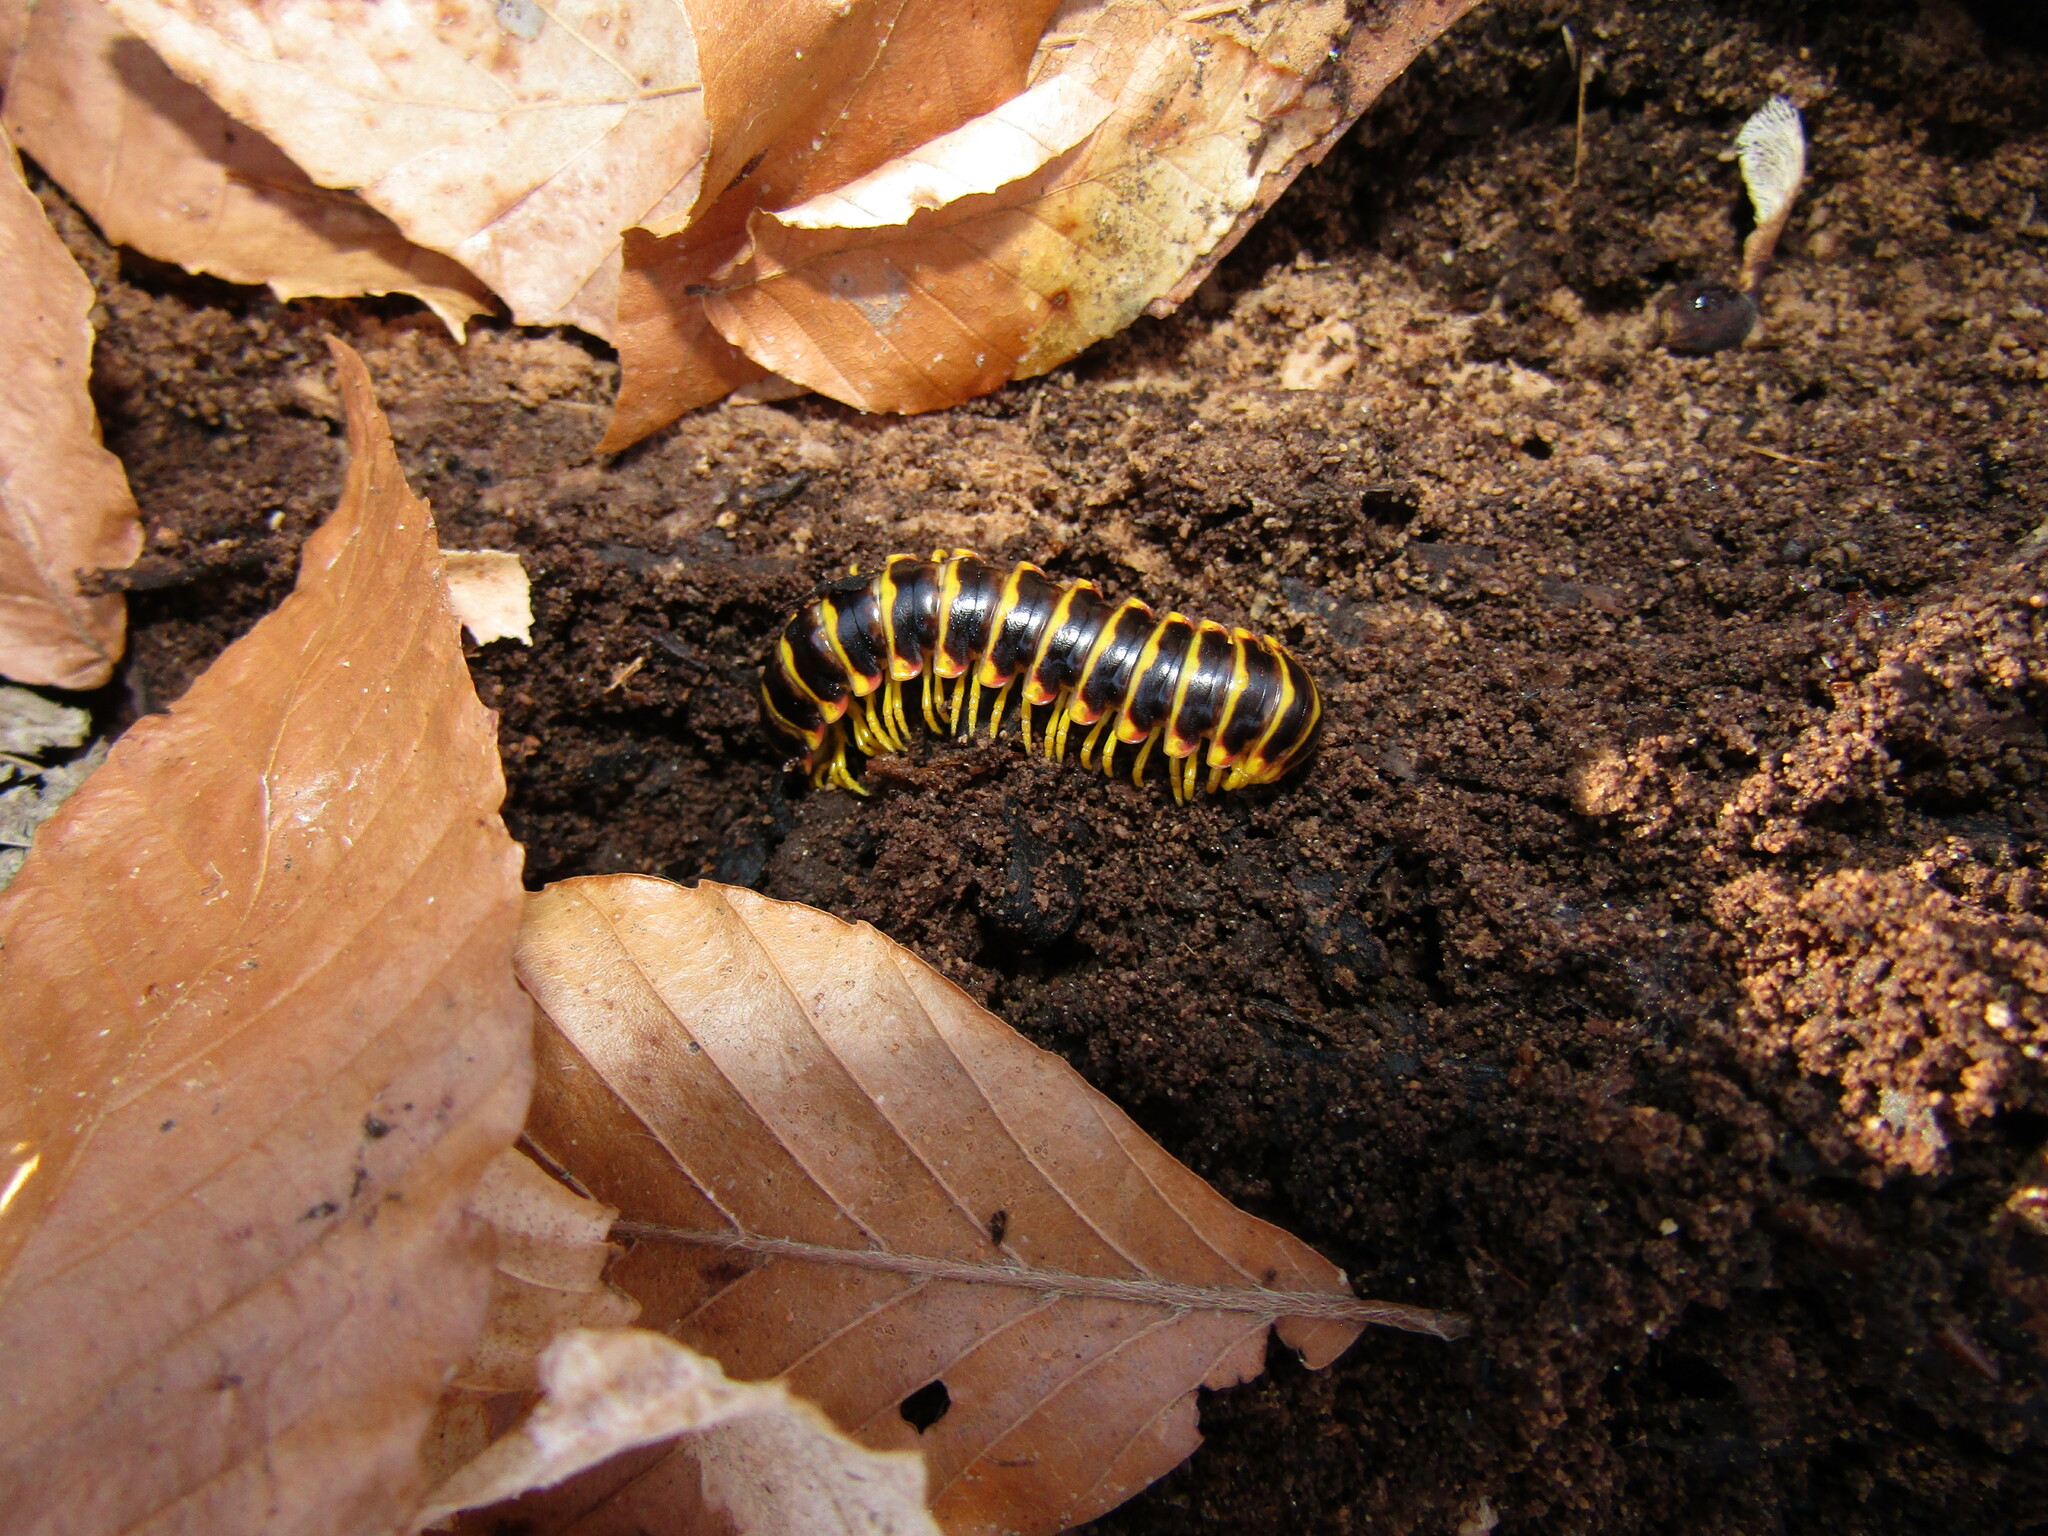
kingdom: Animalia
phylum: Arthropoda
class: Diplopoda
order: Polydesmida
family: Xystodesmidae
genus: Apheloria
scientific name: Apheloria virginiensis
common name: Black-and-gold flat millipede
